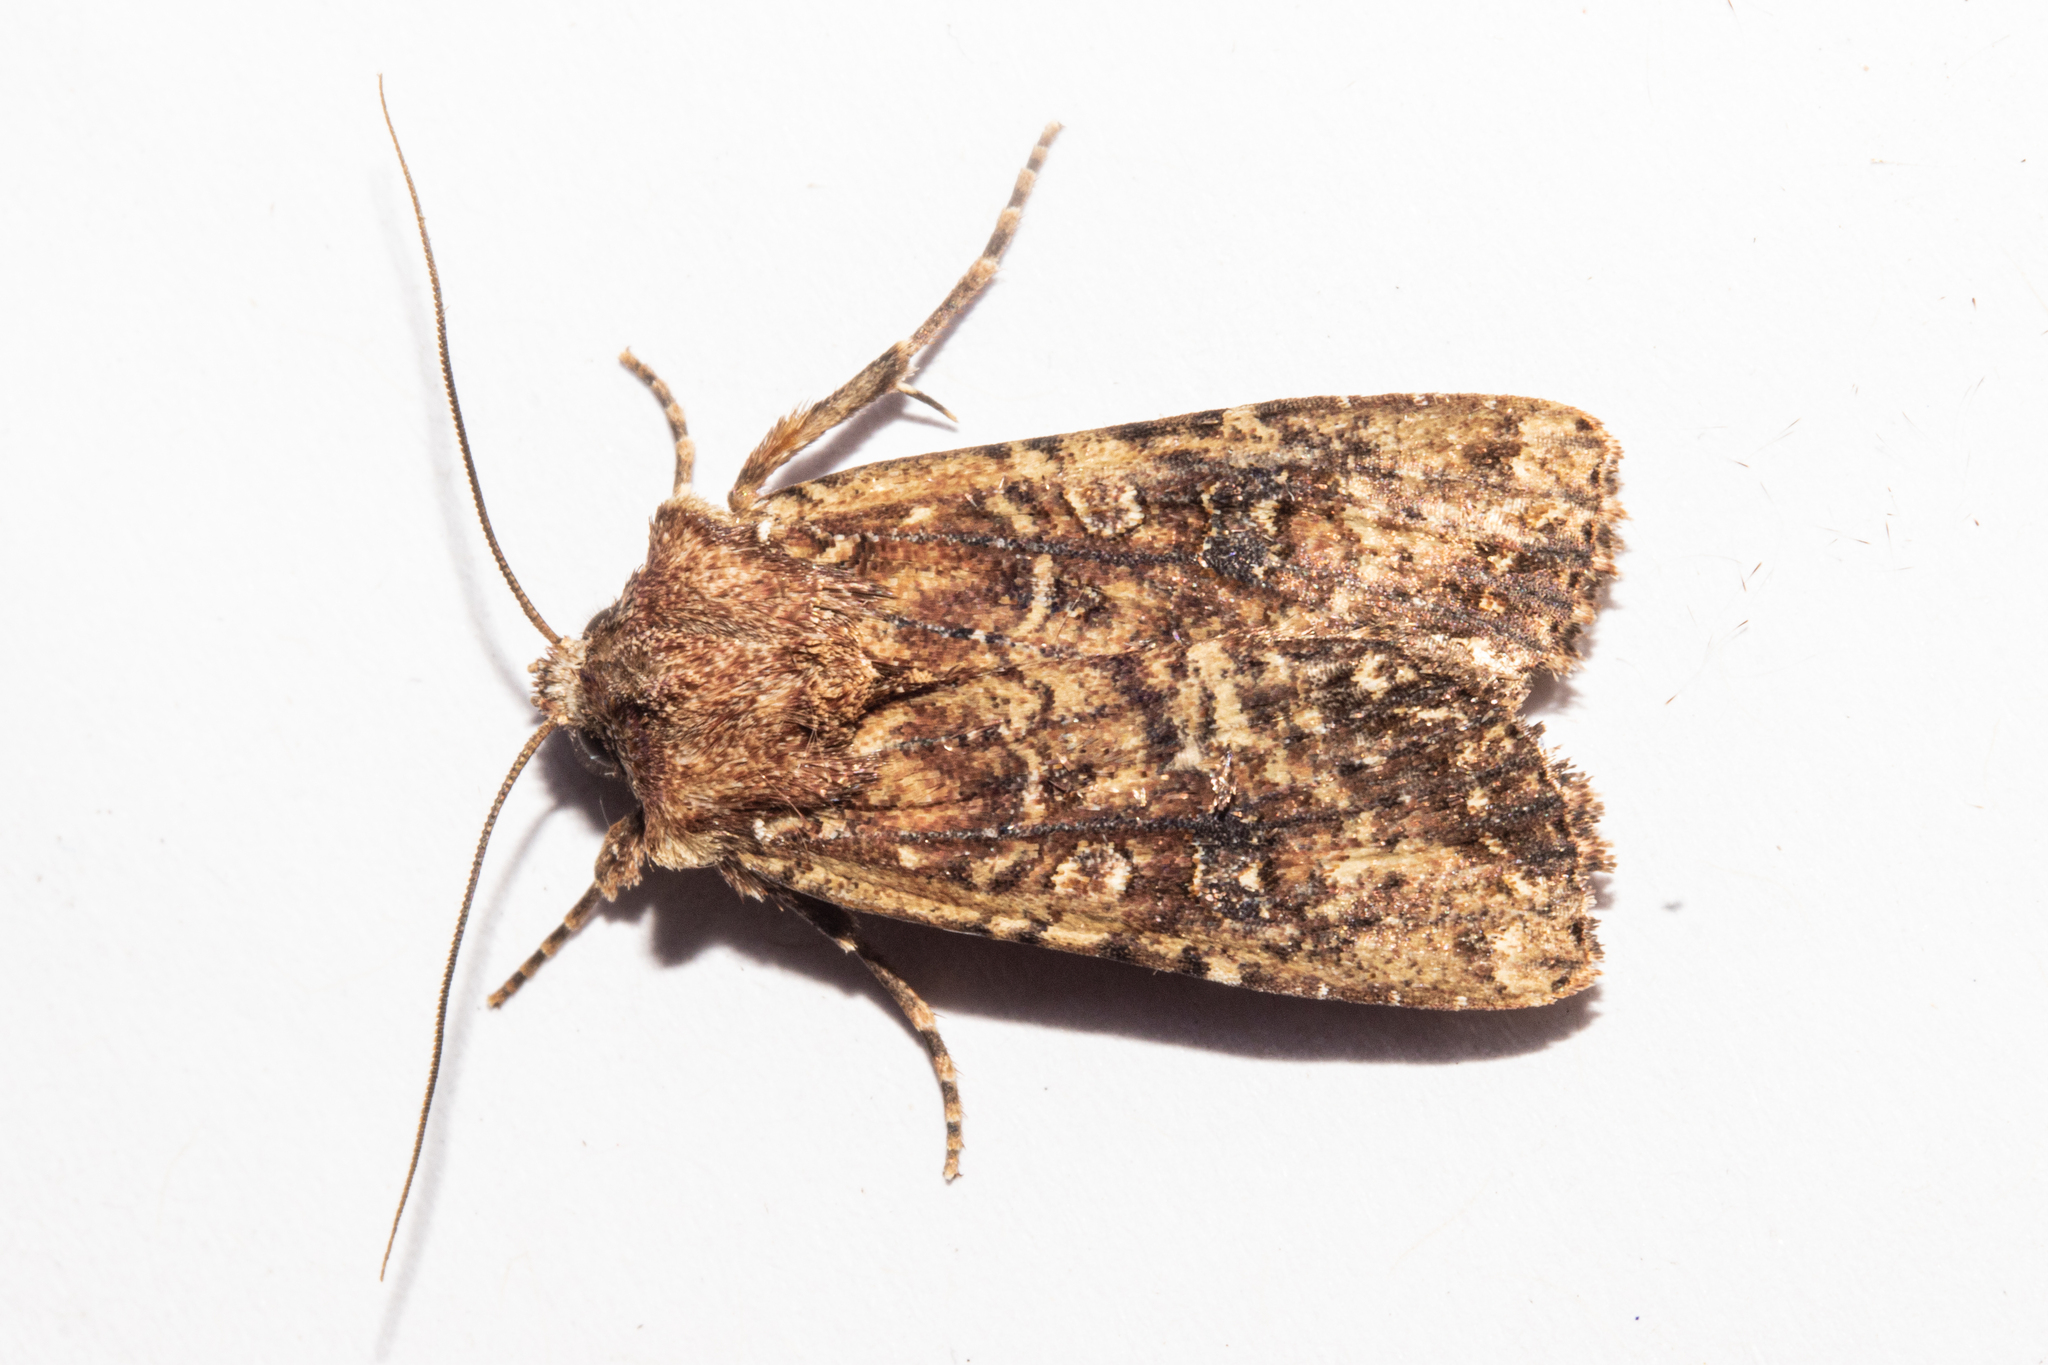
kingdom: Animalia
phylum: Arthropoda
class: Insecta
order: Lepidoptera
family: Noctuidae
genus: Ichneutica
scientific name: Ichneutica mustulenta
